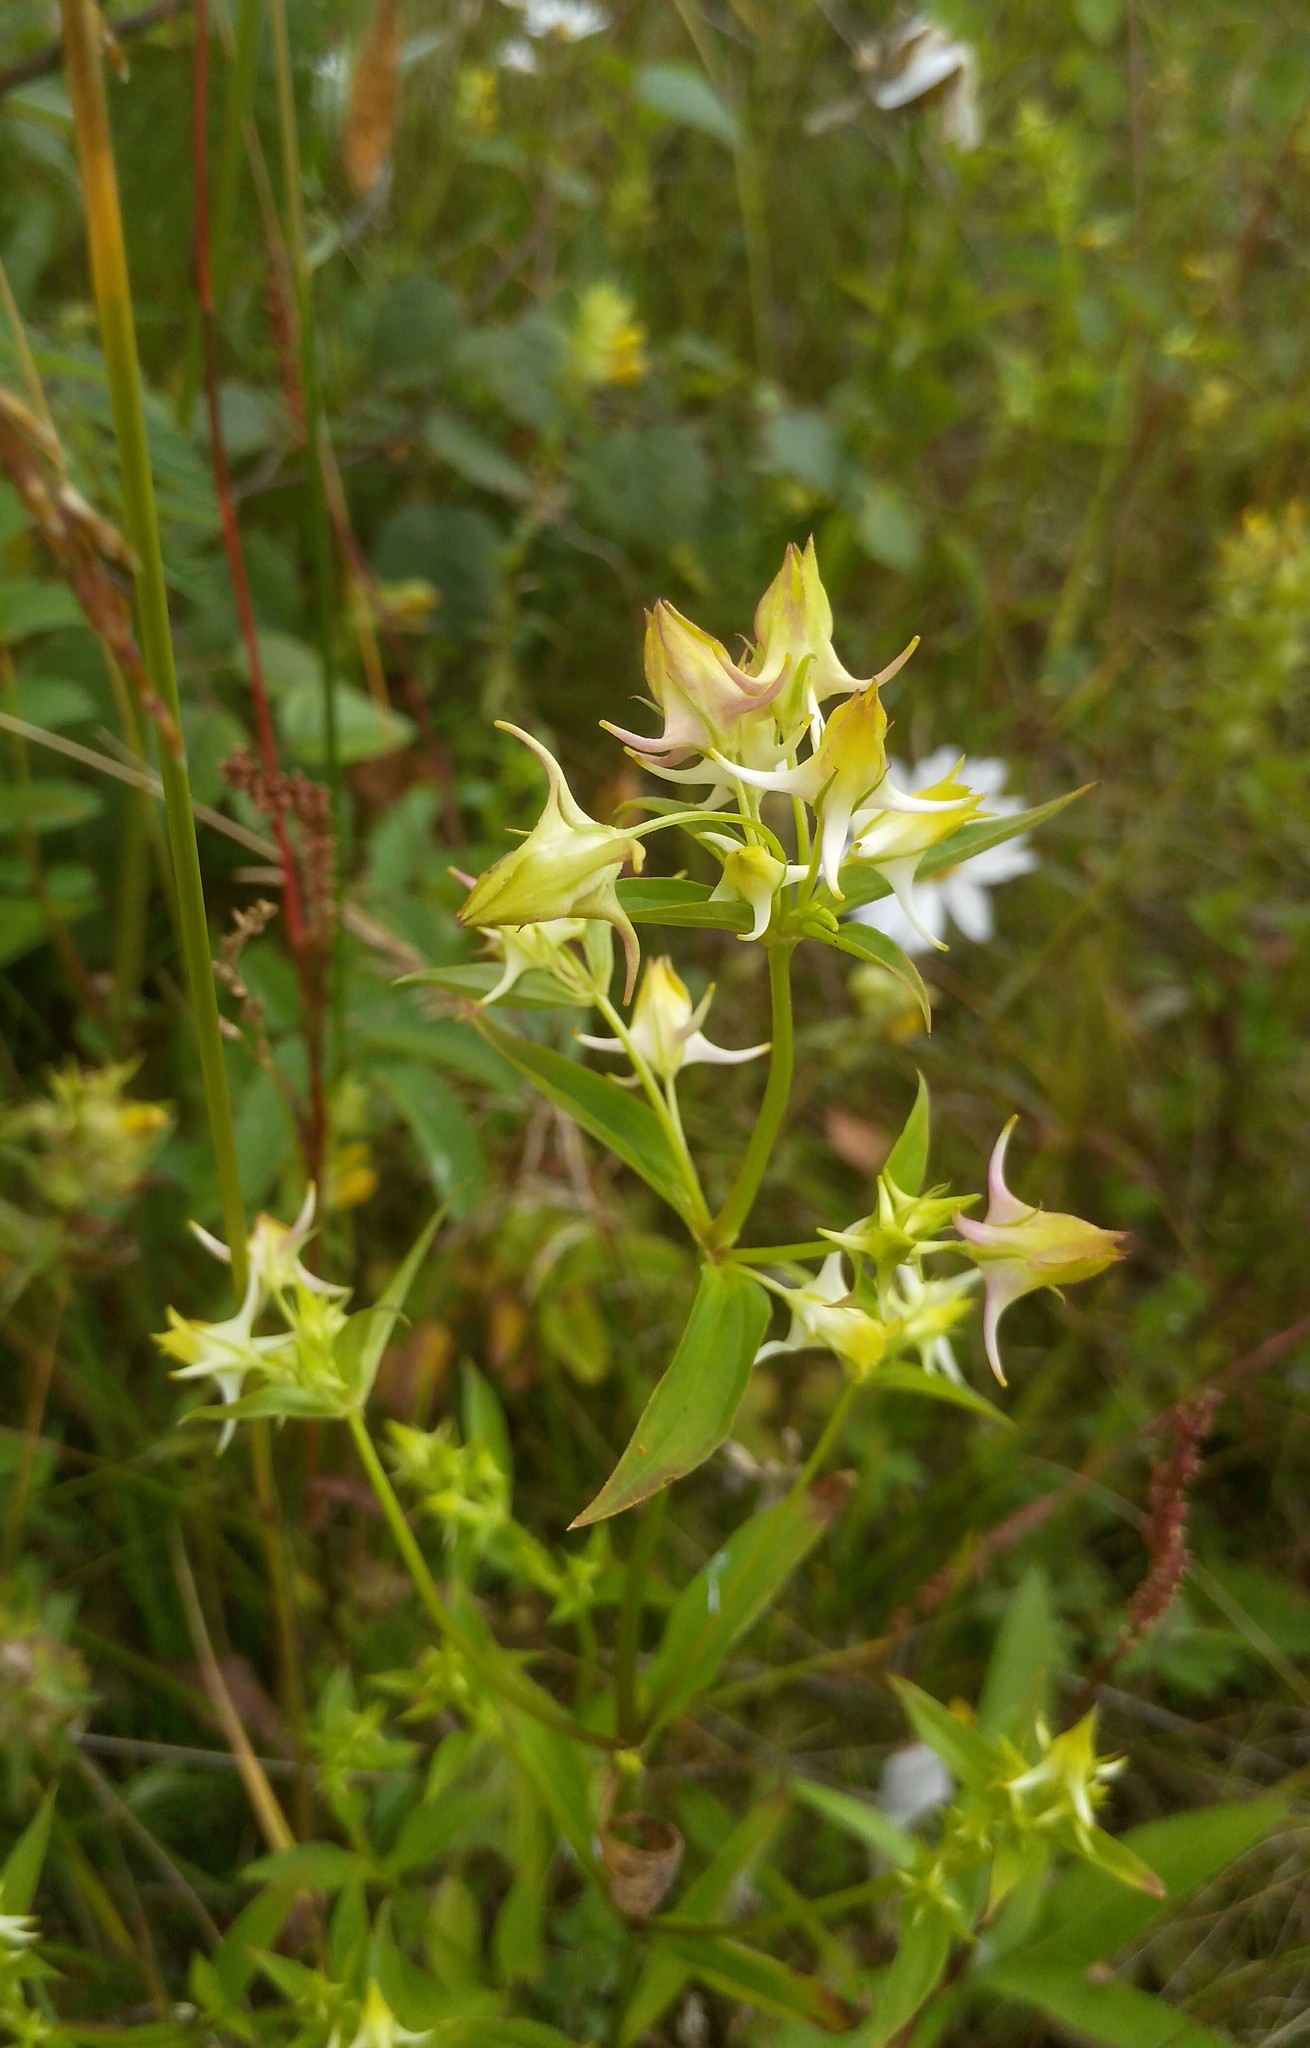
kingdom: Plantae
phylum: Tracheophyta
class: Magnoliopsida
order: Gentianales
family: Gentianaceae
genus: Halenia
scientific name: Halenia corniculata
